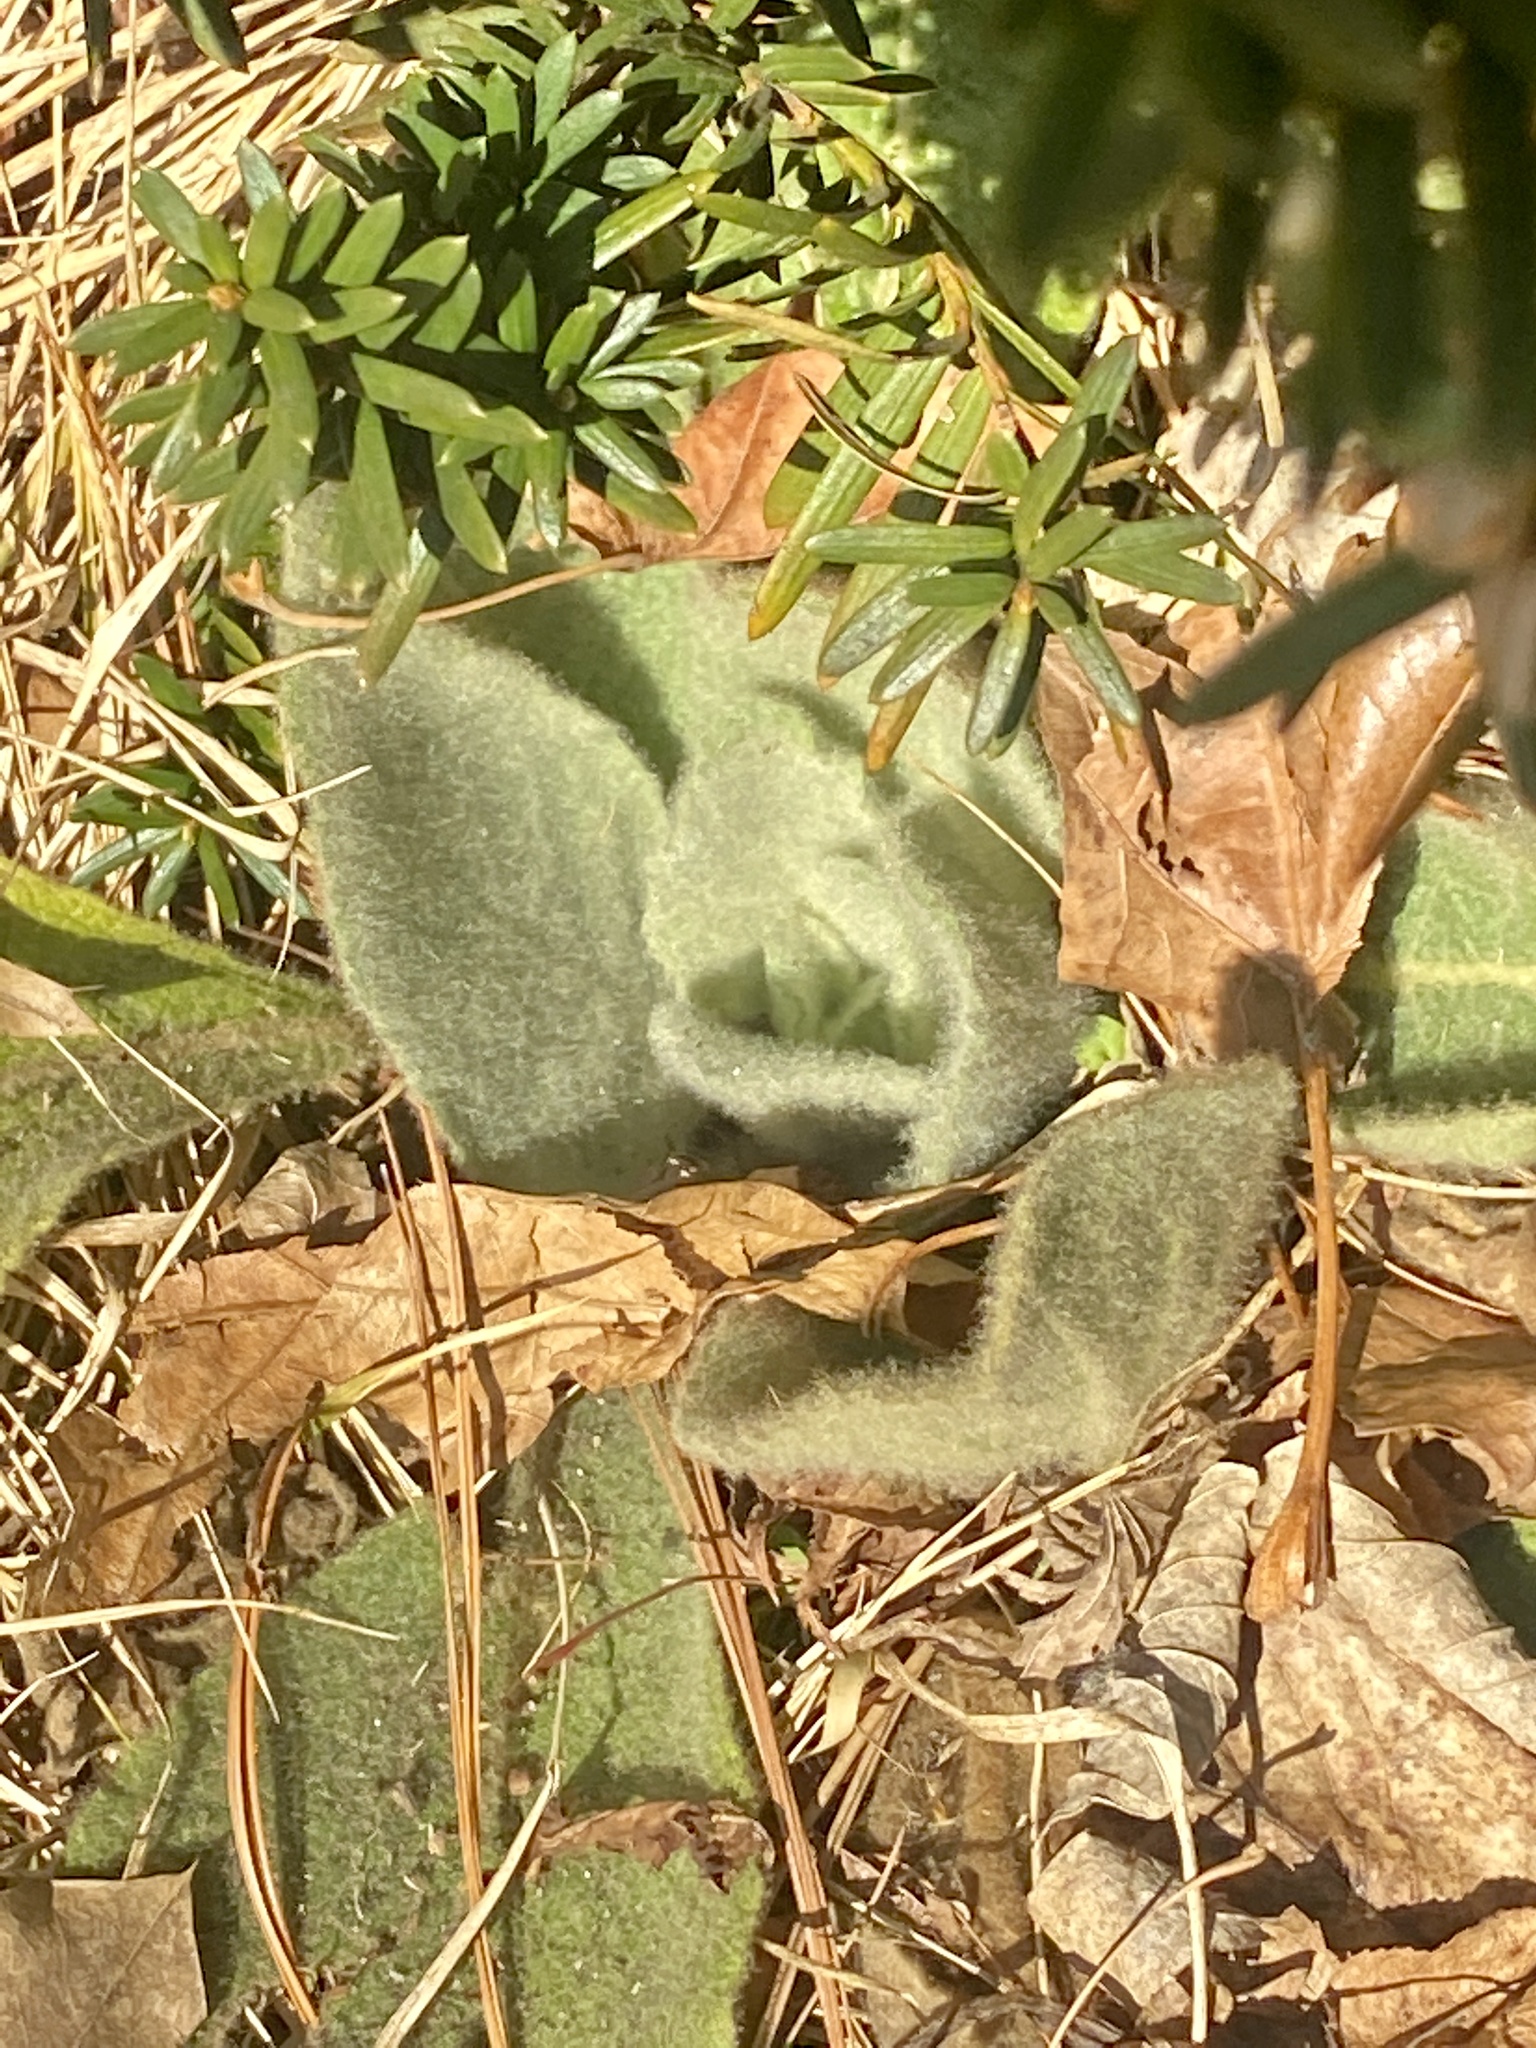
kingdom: Plantae
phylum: Tracheophyta
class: Magnoliopsida
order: Lamiales
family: Scrophulariaceae
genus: Verbascum
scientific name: Verbascum thapsus
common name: Common mullein
